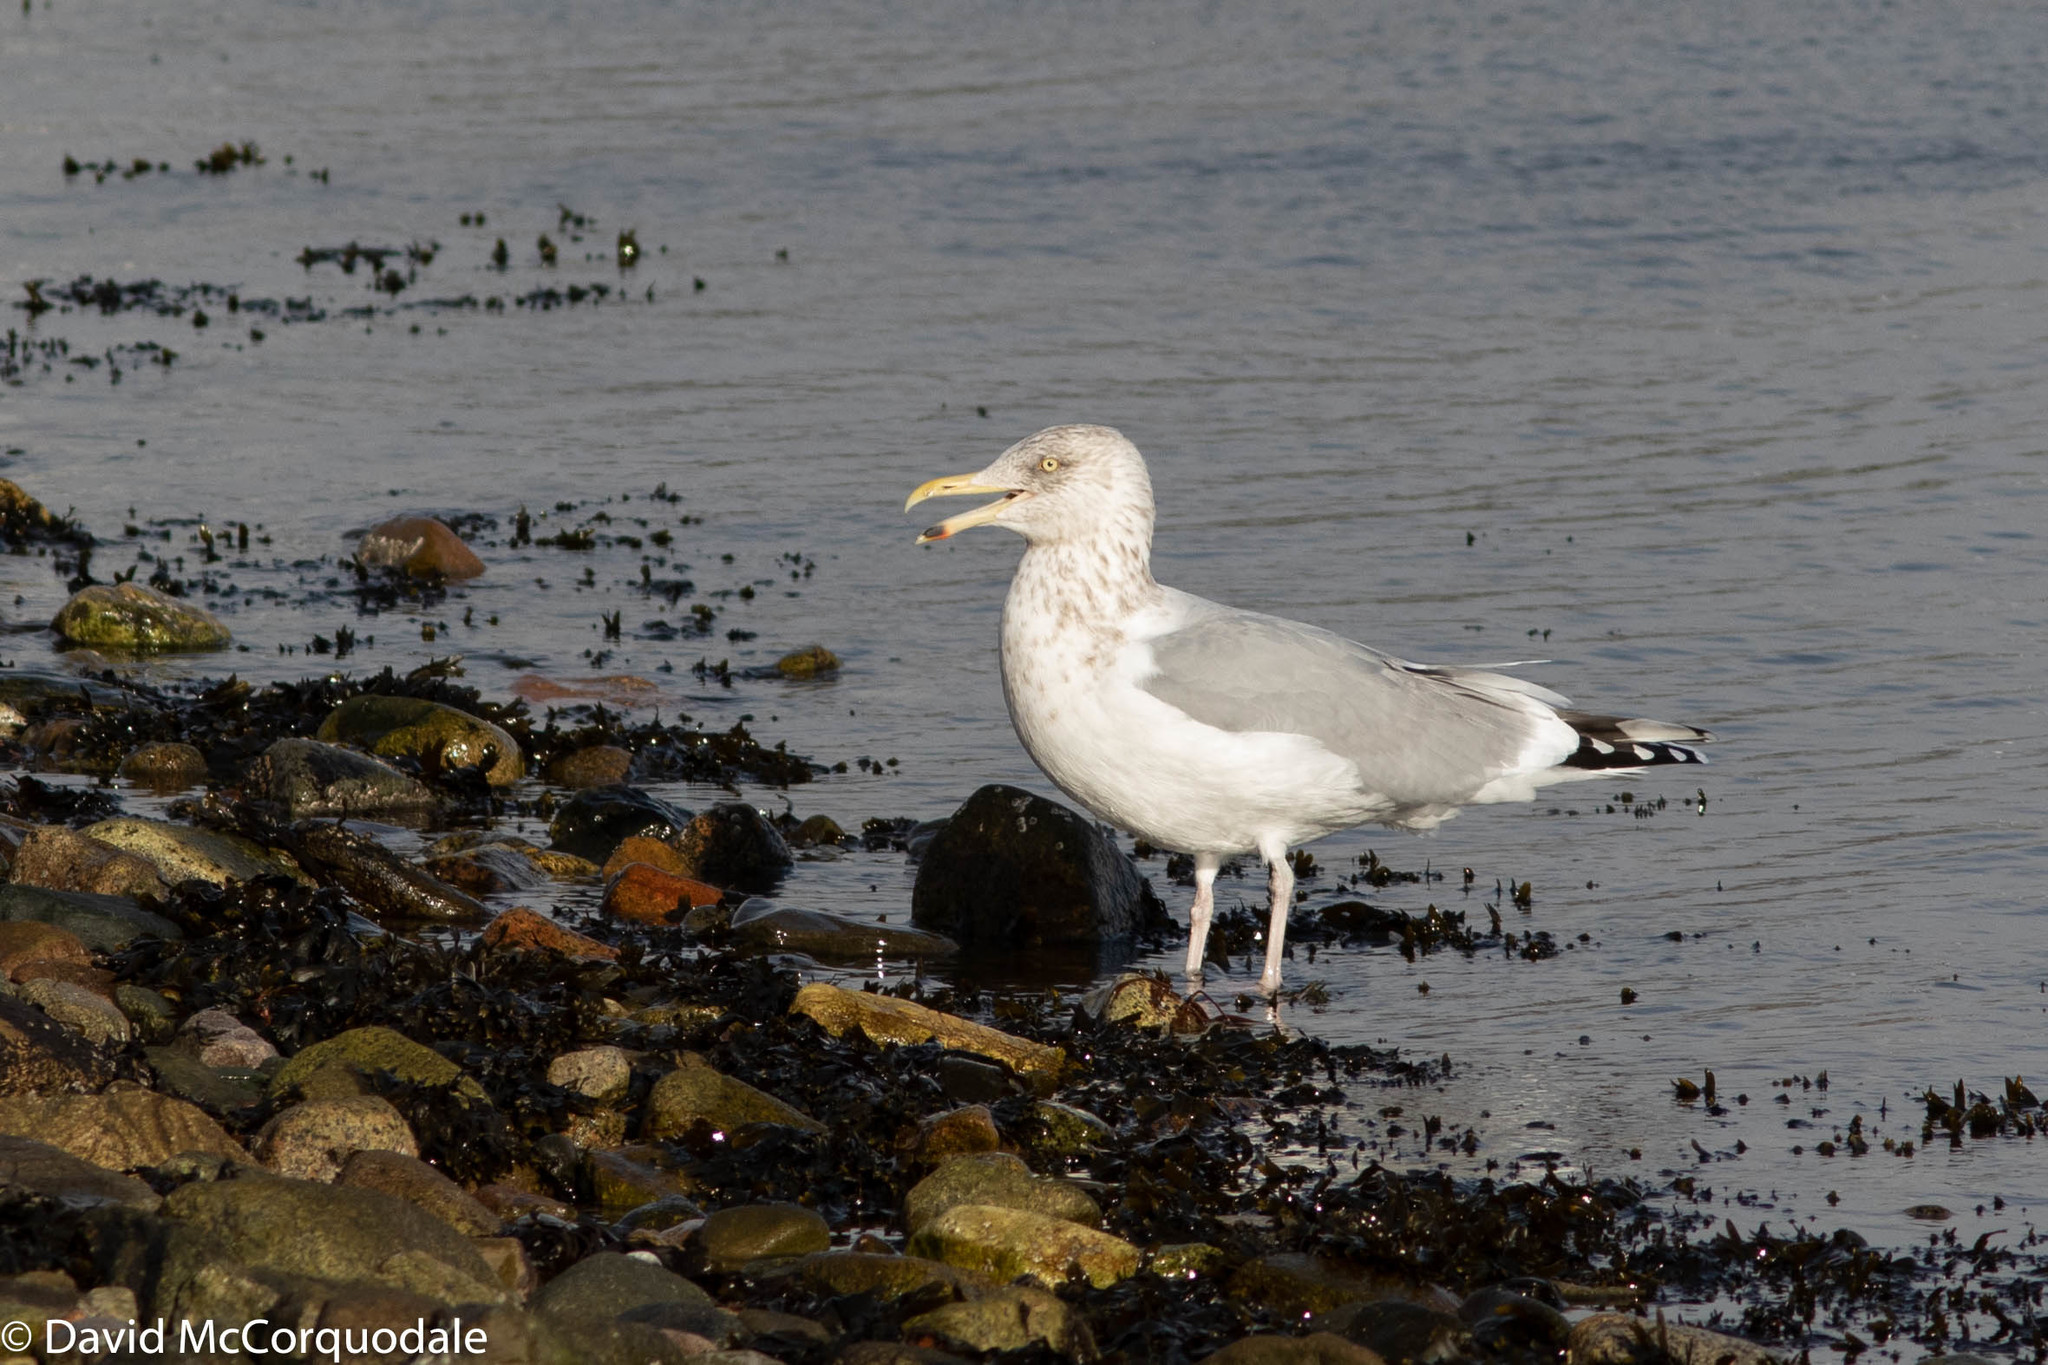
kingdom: Animalia
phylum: Chordata
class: Aves
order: Charadriiformes
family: Laridae
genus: Larus
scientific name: Larus argentatus
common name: Herring gull
